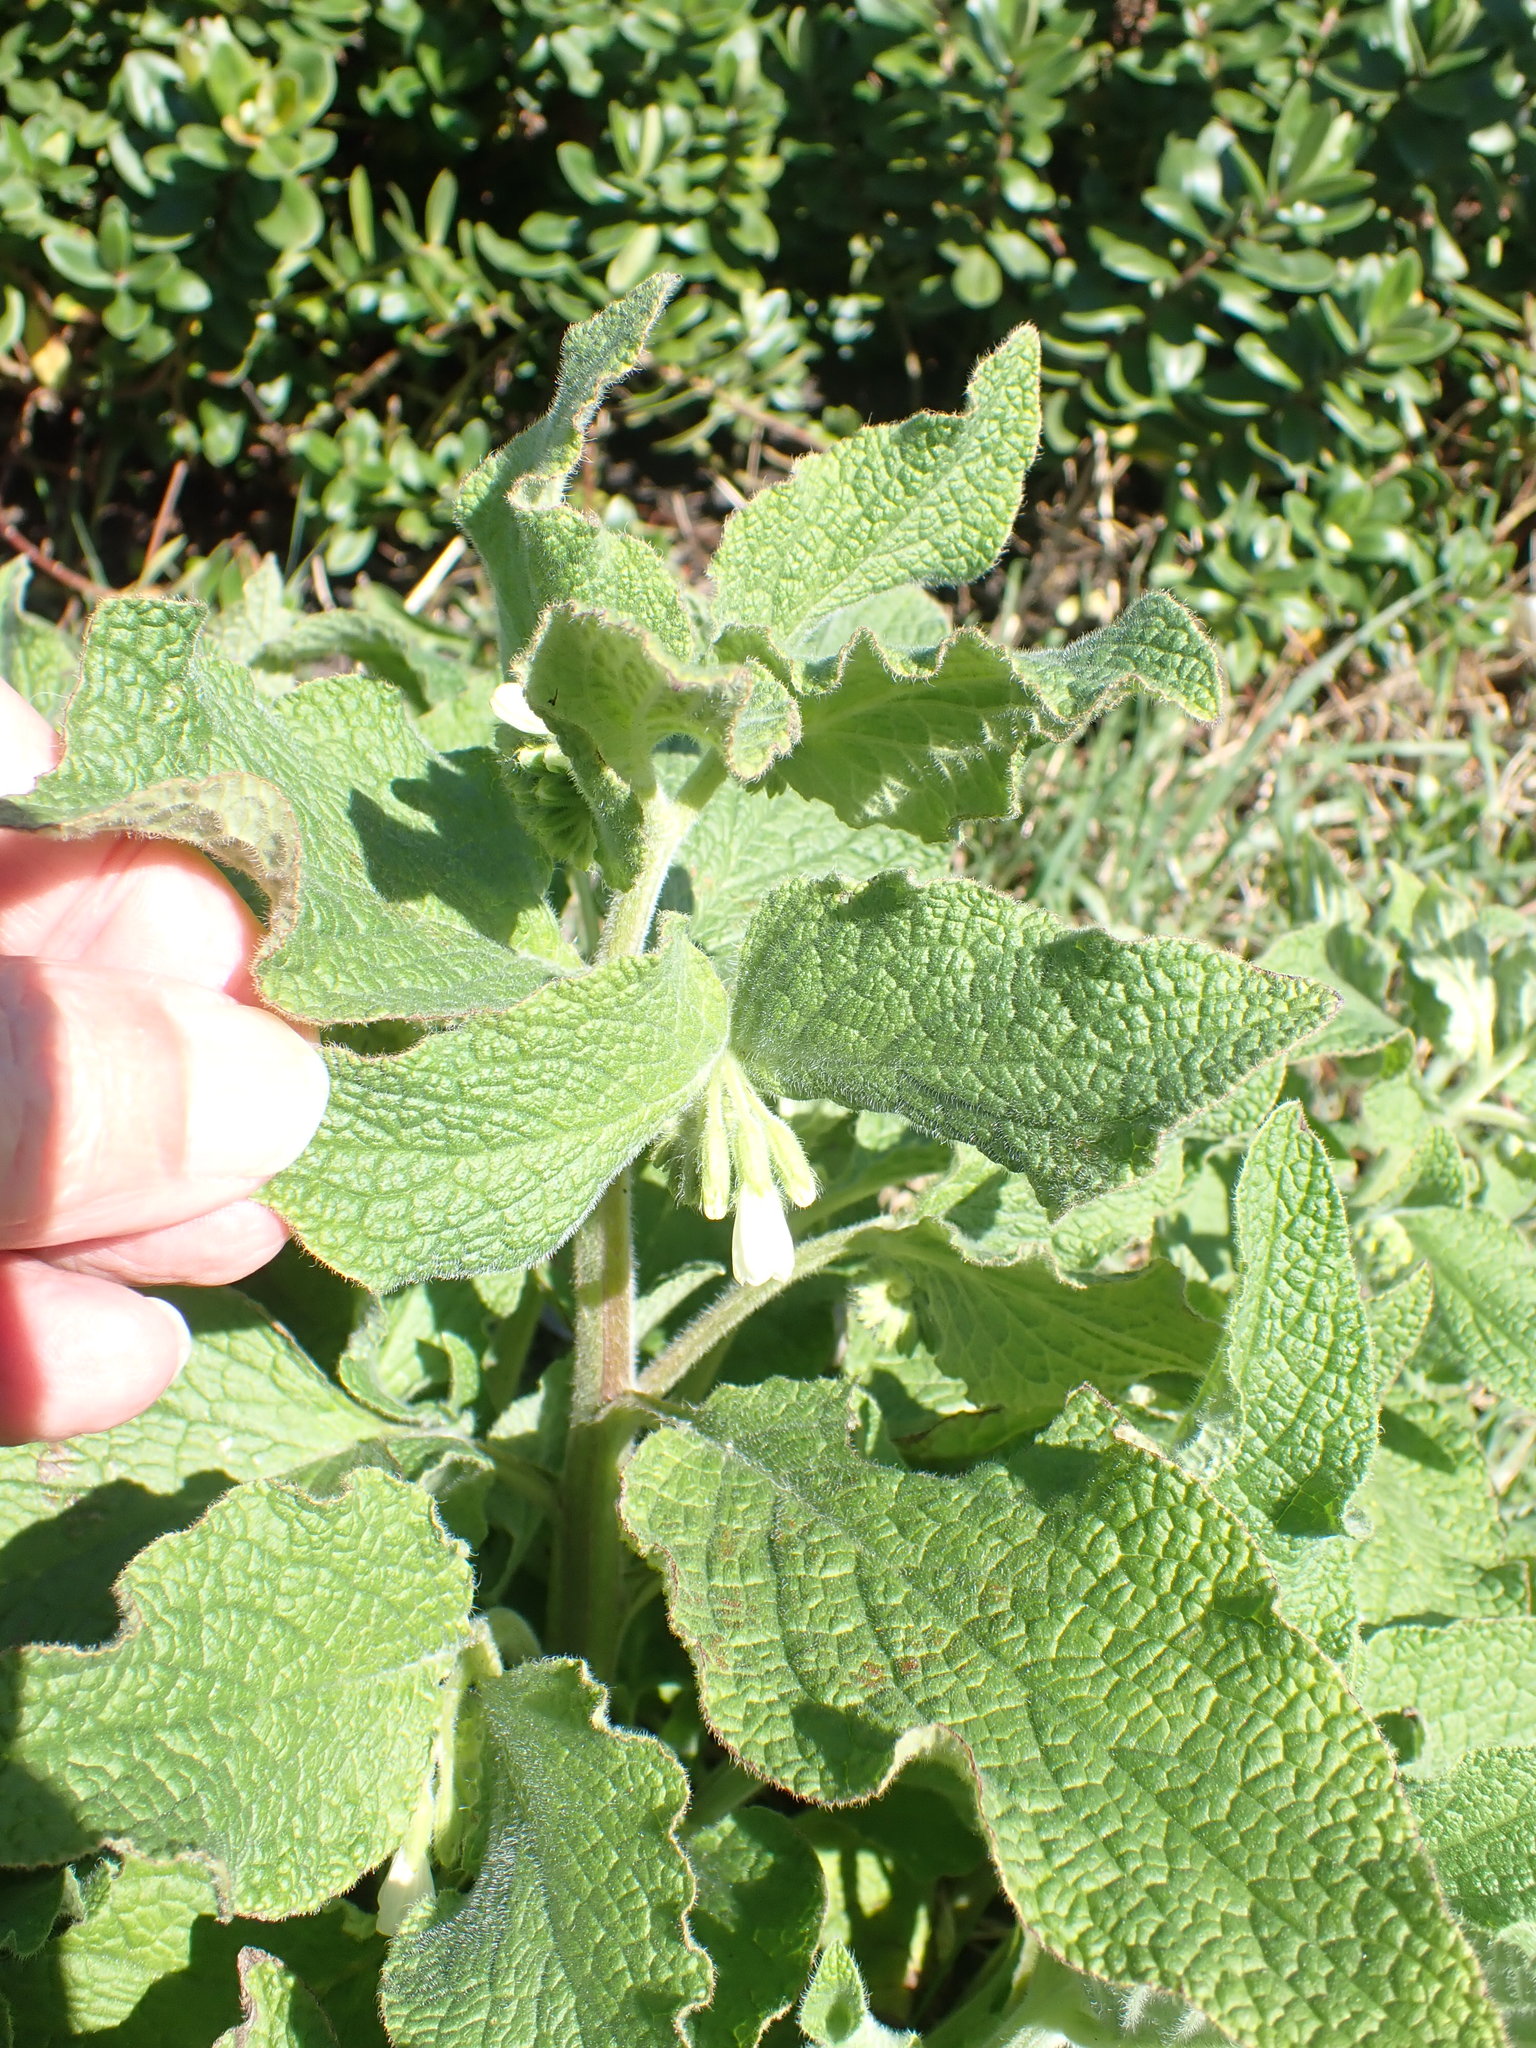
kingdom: Plantae
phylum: Tracheophyta
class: Magnoliopsida
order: Boraginales
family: Boraginaceae
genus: Symphytum
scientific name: Symphytum orientale
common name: White comfrey
